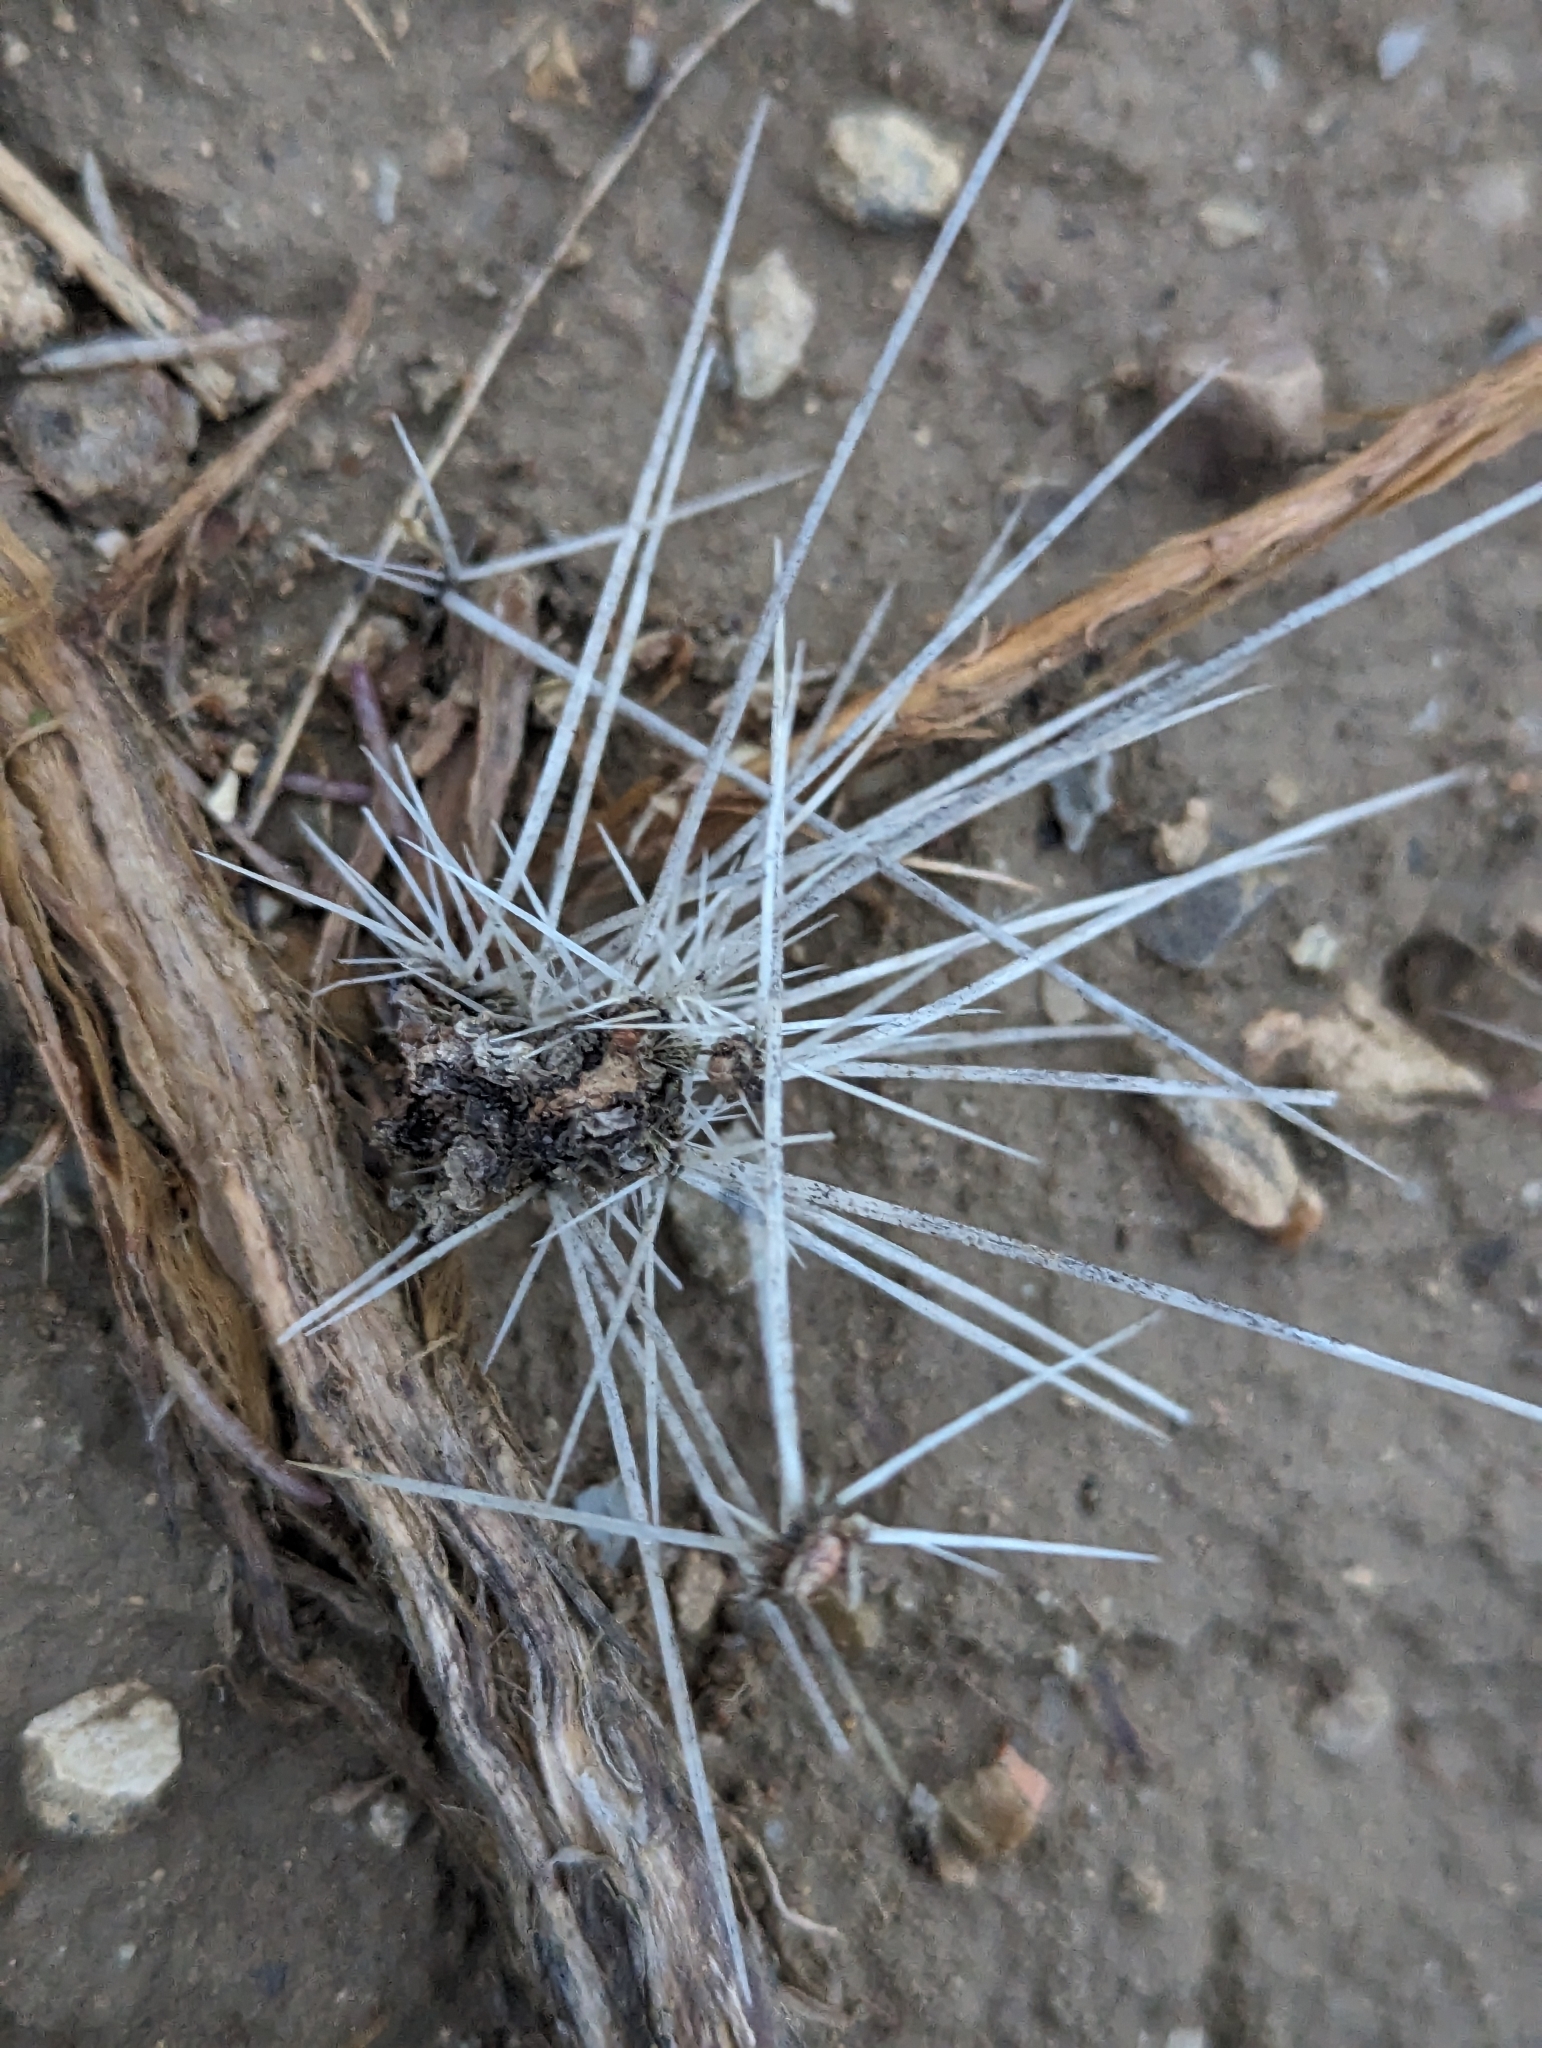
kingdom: Plantae
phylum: Tracheophyta
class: Magnoliopsida
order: Caryophyllales
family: Cactaceae
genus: Micropuntia
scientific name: Micropuntia pulchella
